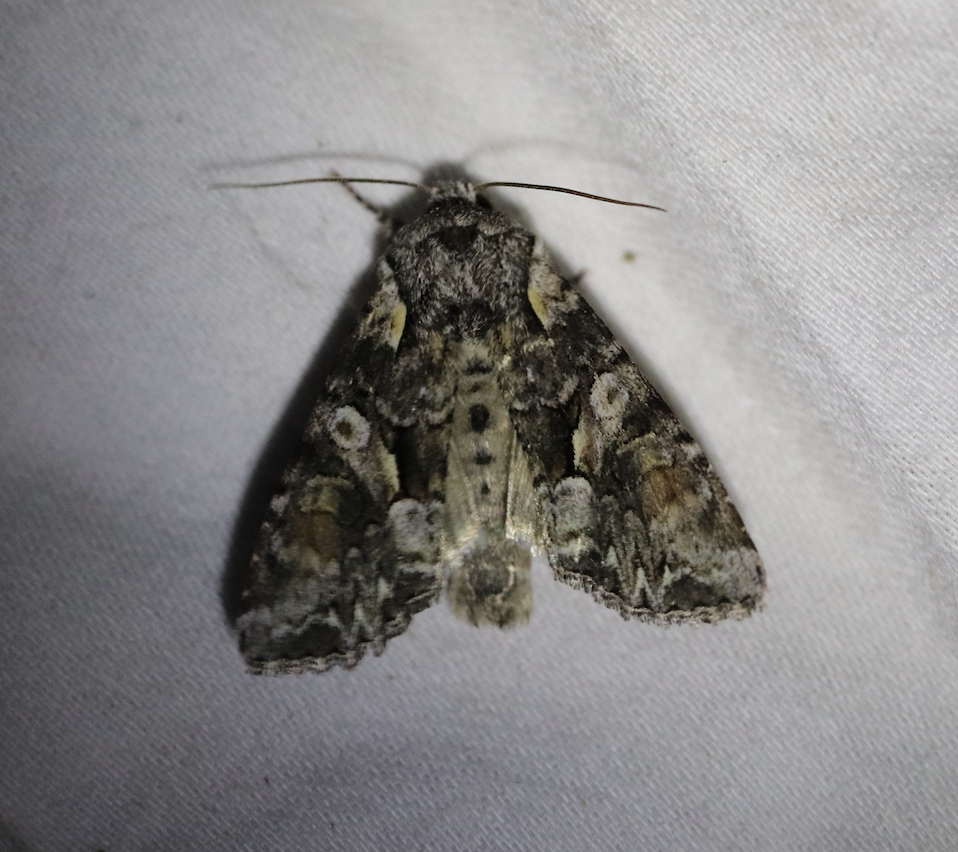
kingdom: Animalia
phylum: Arthropoda
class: Insecta
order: Lepidoptera
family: Noctuidae
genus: Lacanobia
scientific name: Lacanobia contigua
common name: Beautiful brocade
